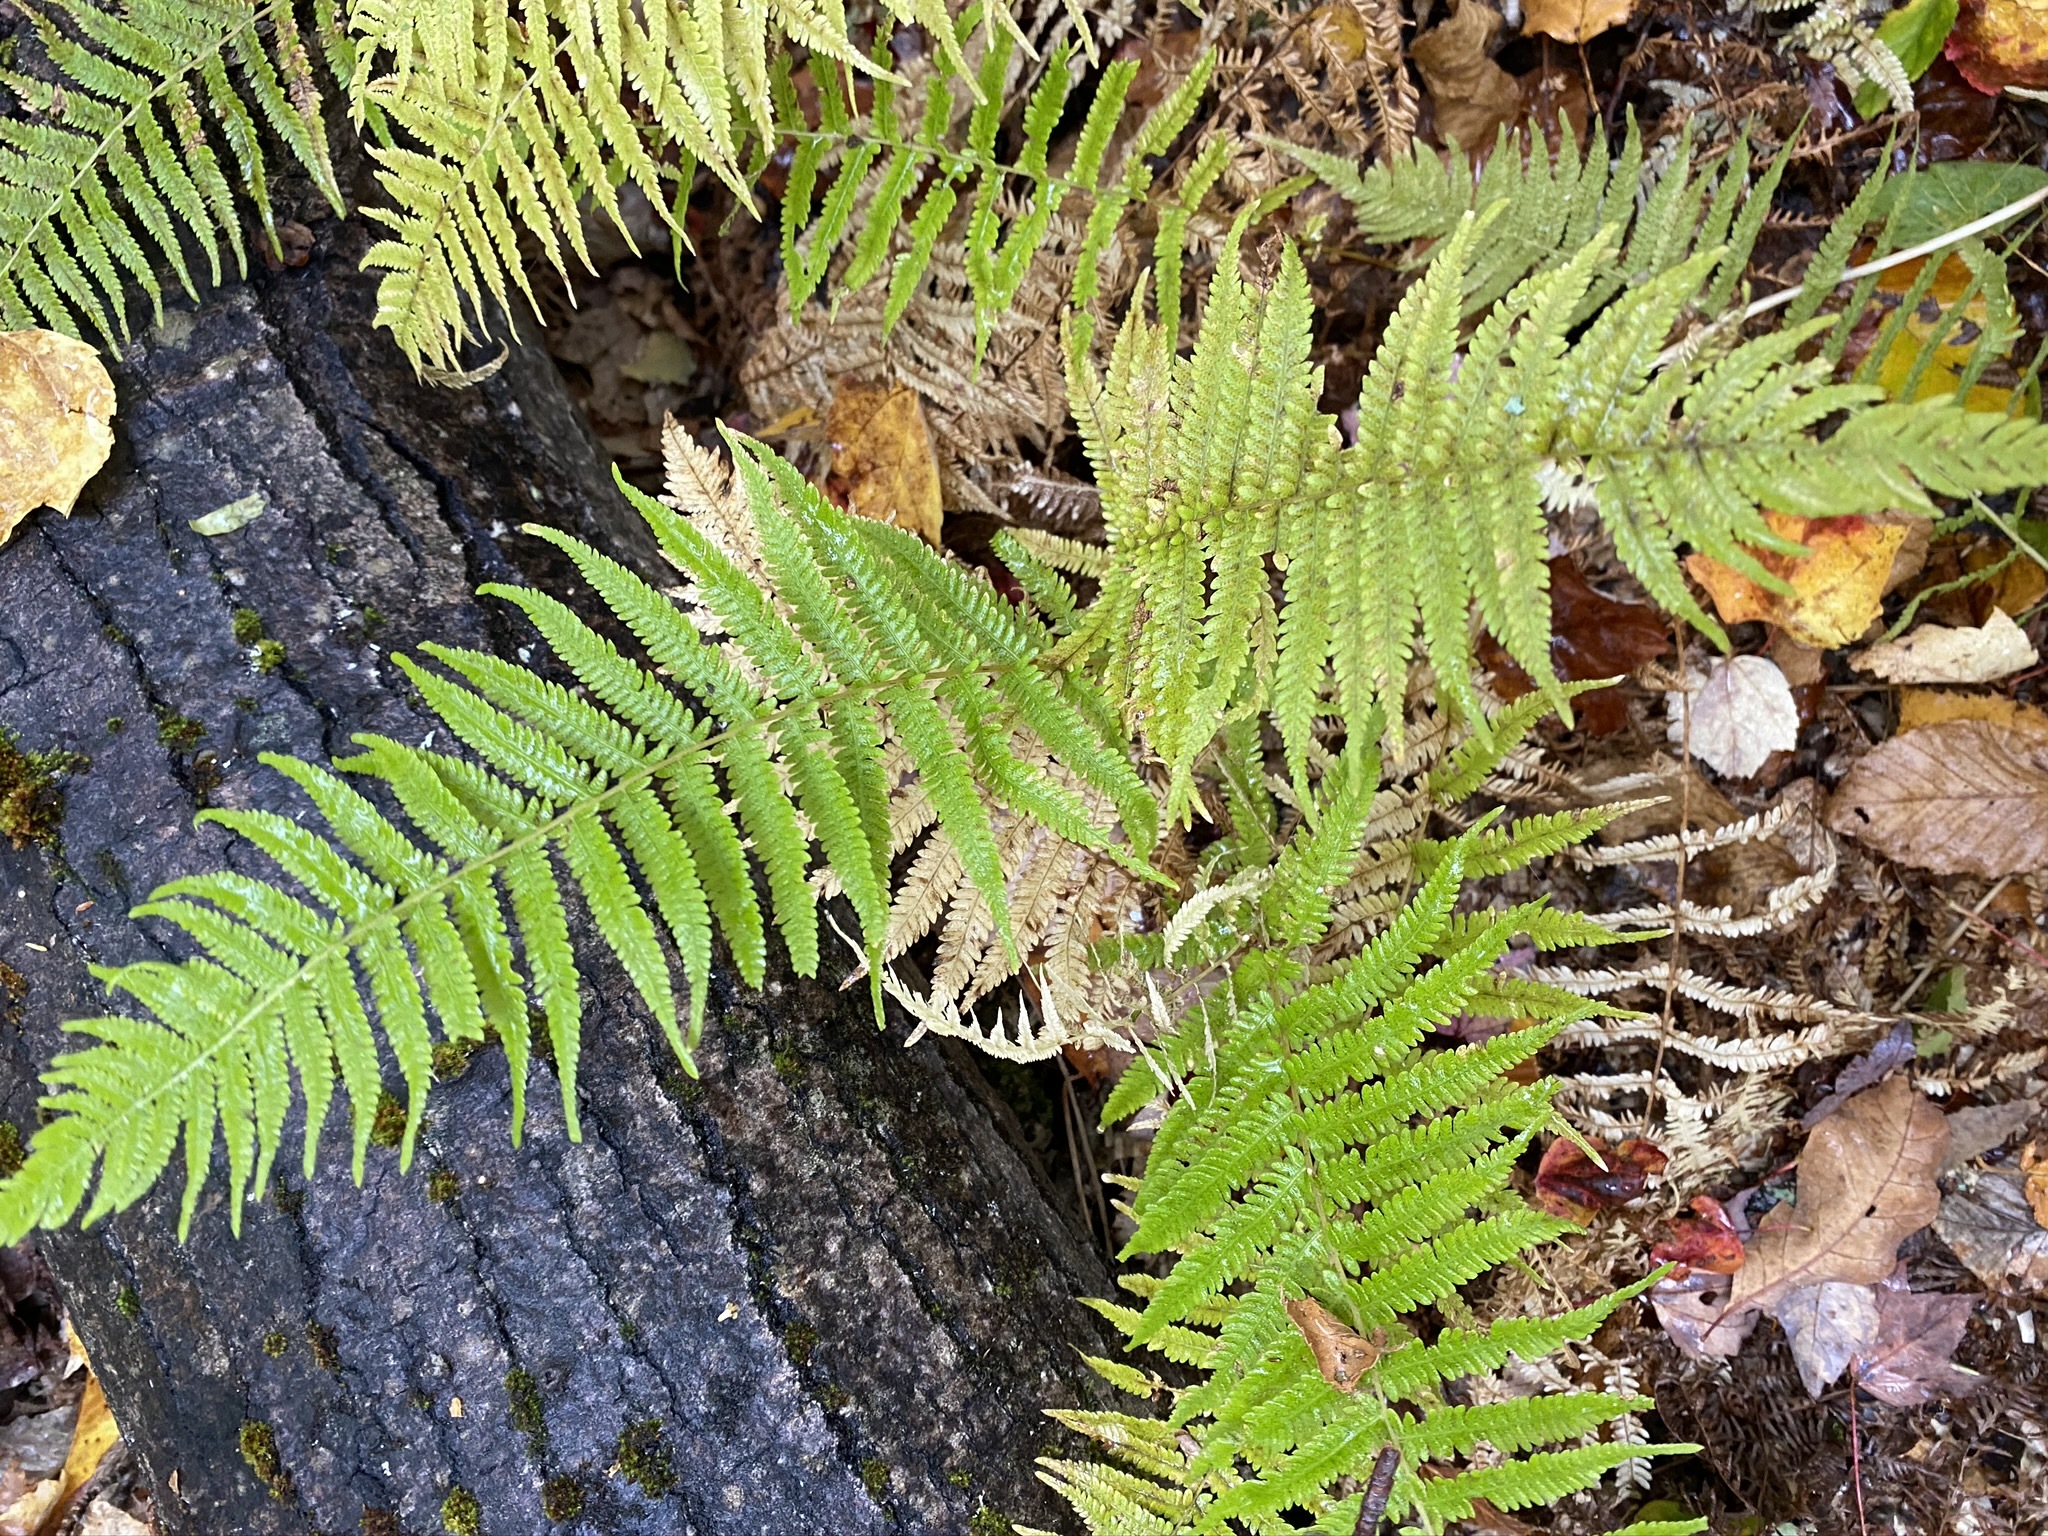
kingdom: Plantae
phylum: Tracheophyta
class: Polypodiopsida
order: Polypodiales
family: Thelypteridaceae
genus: Amauropelta
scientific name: Amauropelta noveboracensis
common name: New york fern
